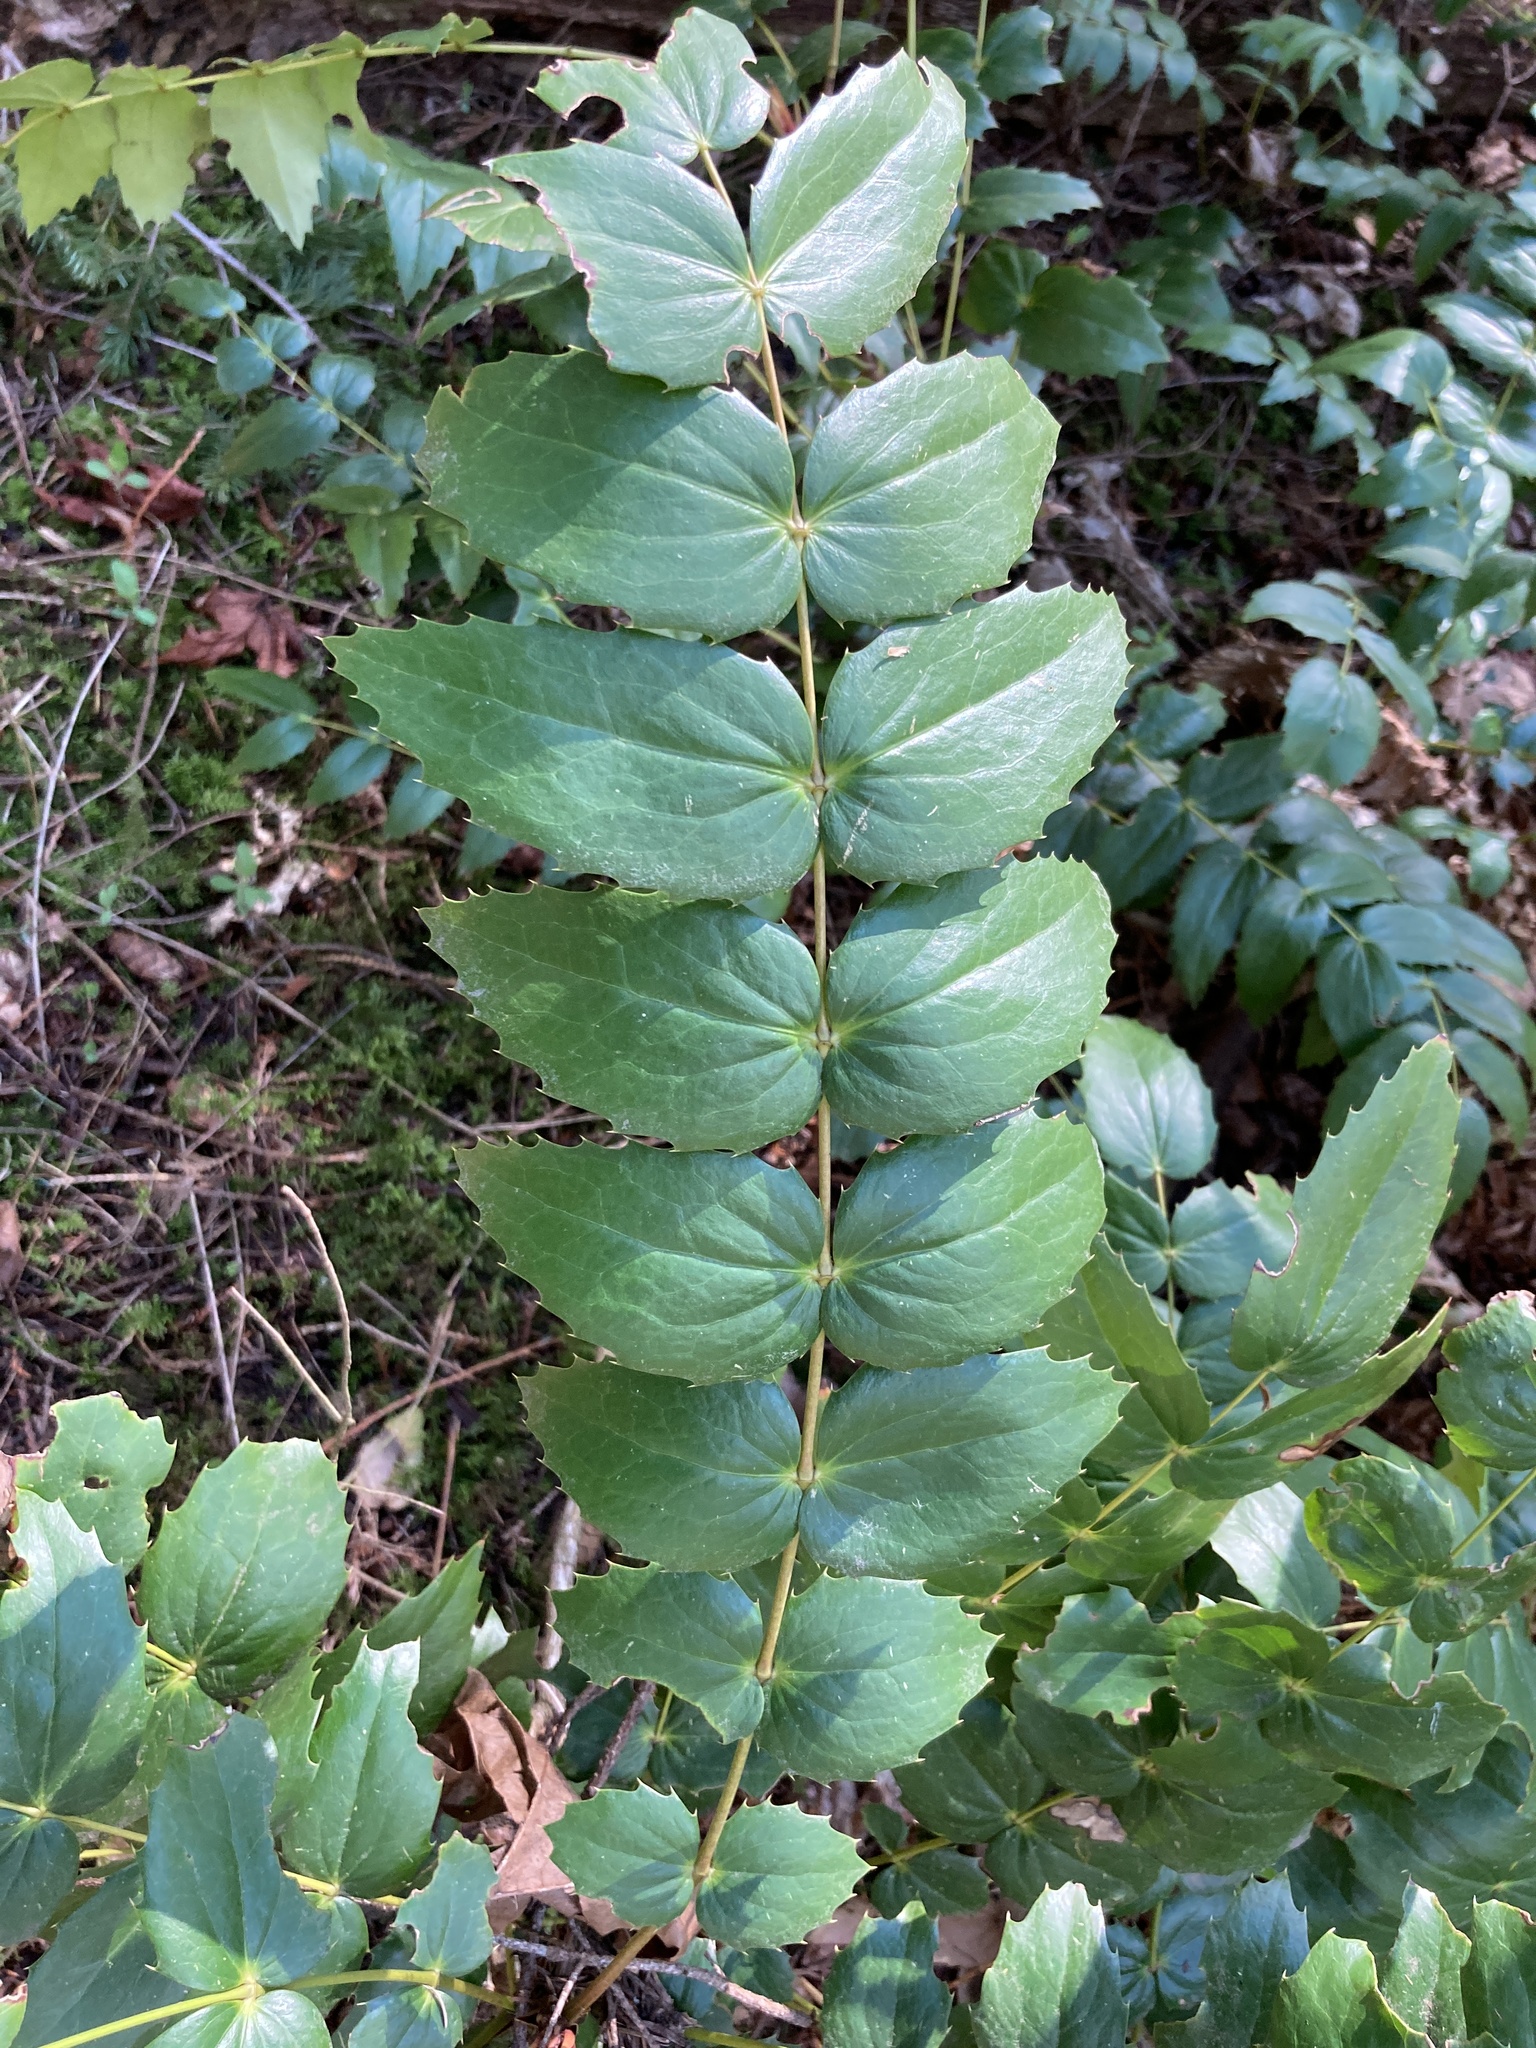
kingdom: Plantae
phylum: Tracheophyta
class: Magnoliopsida
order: Ranunculales
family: Berberidaceae
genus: Mahonia
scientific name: Mahonia nervosa
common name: Cascade oregon-grape
